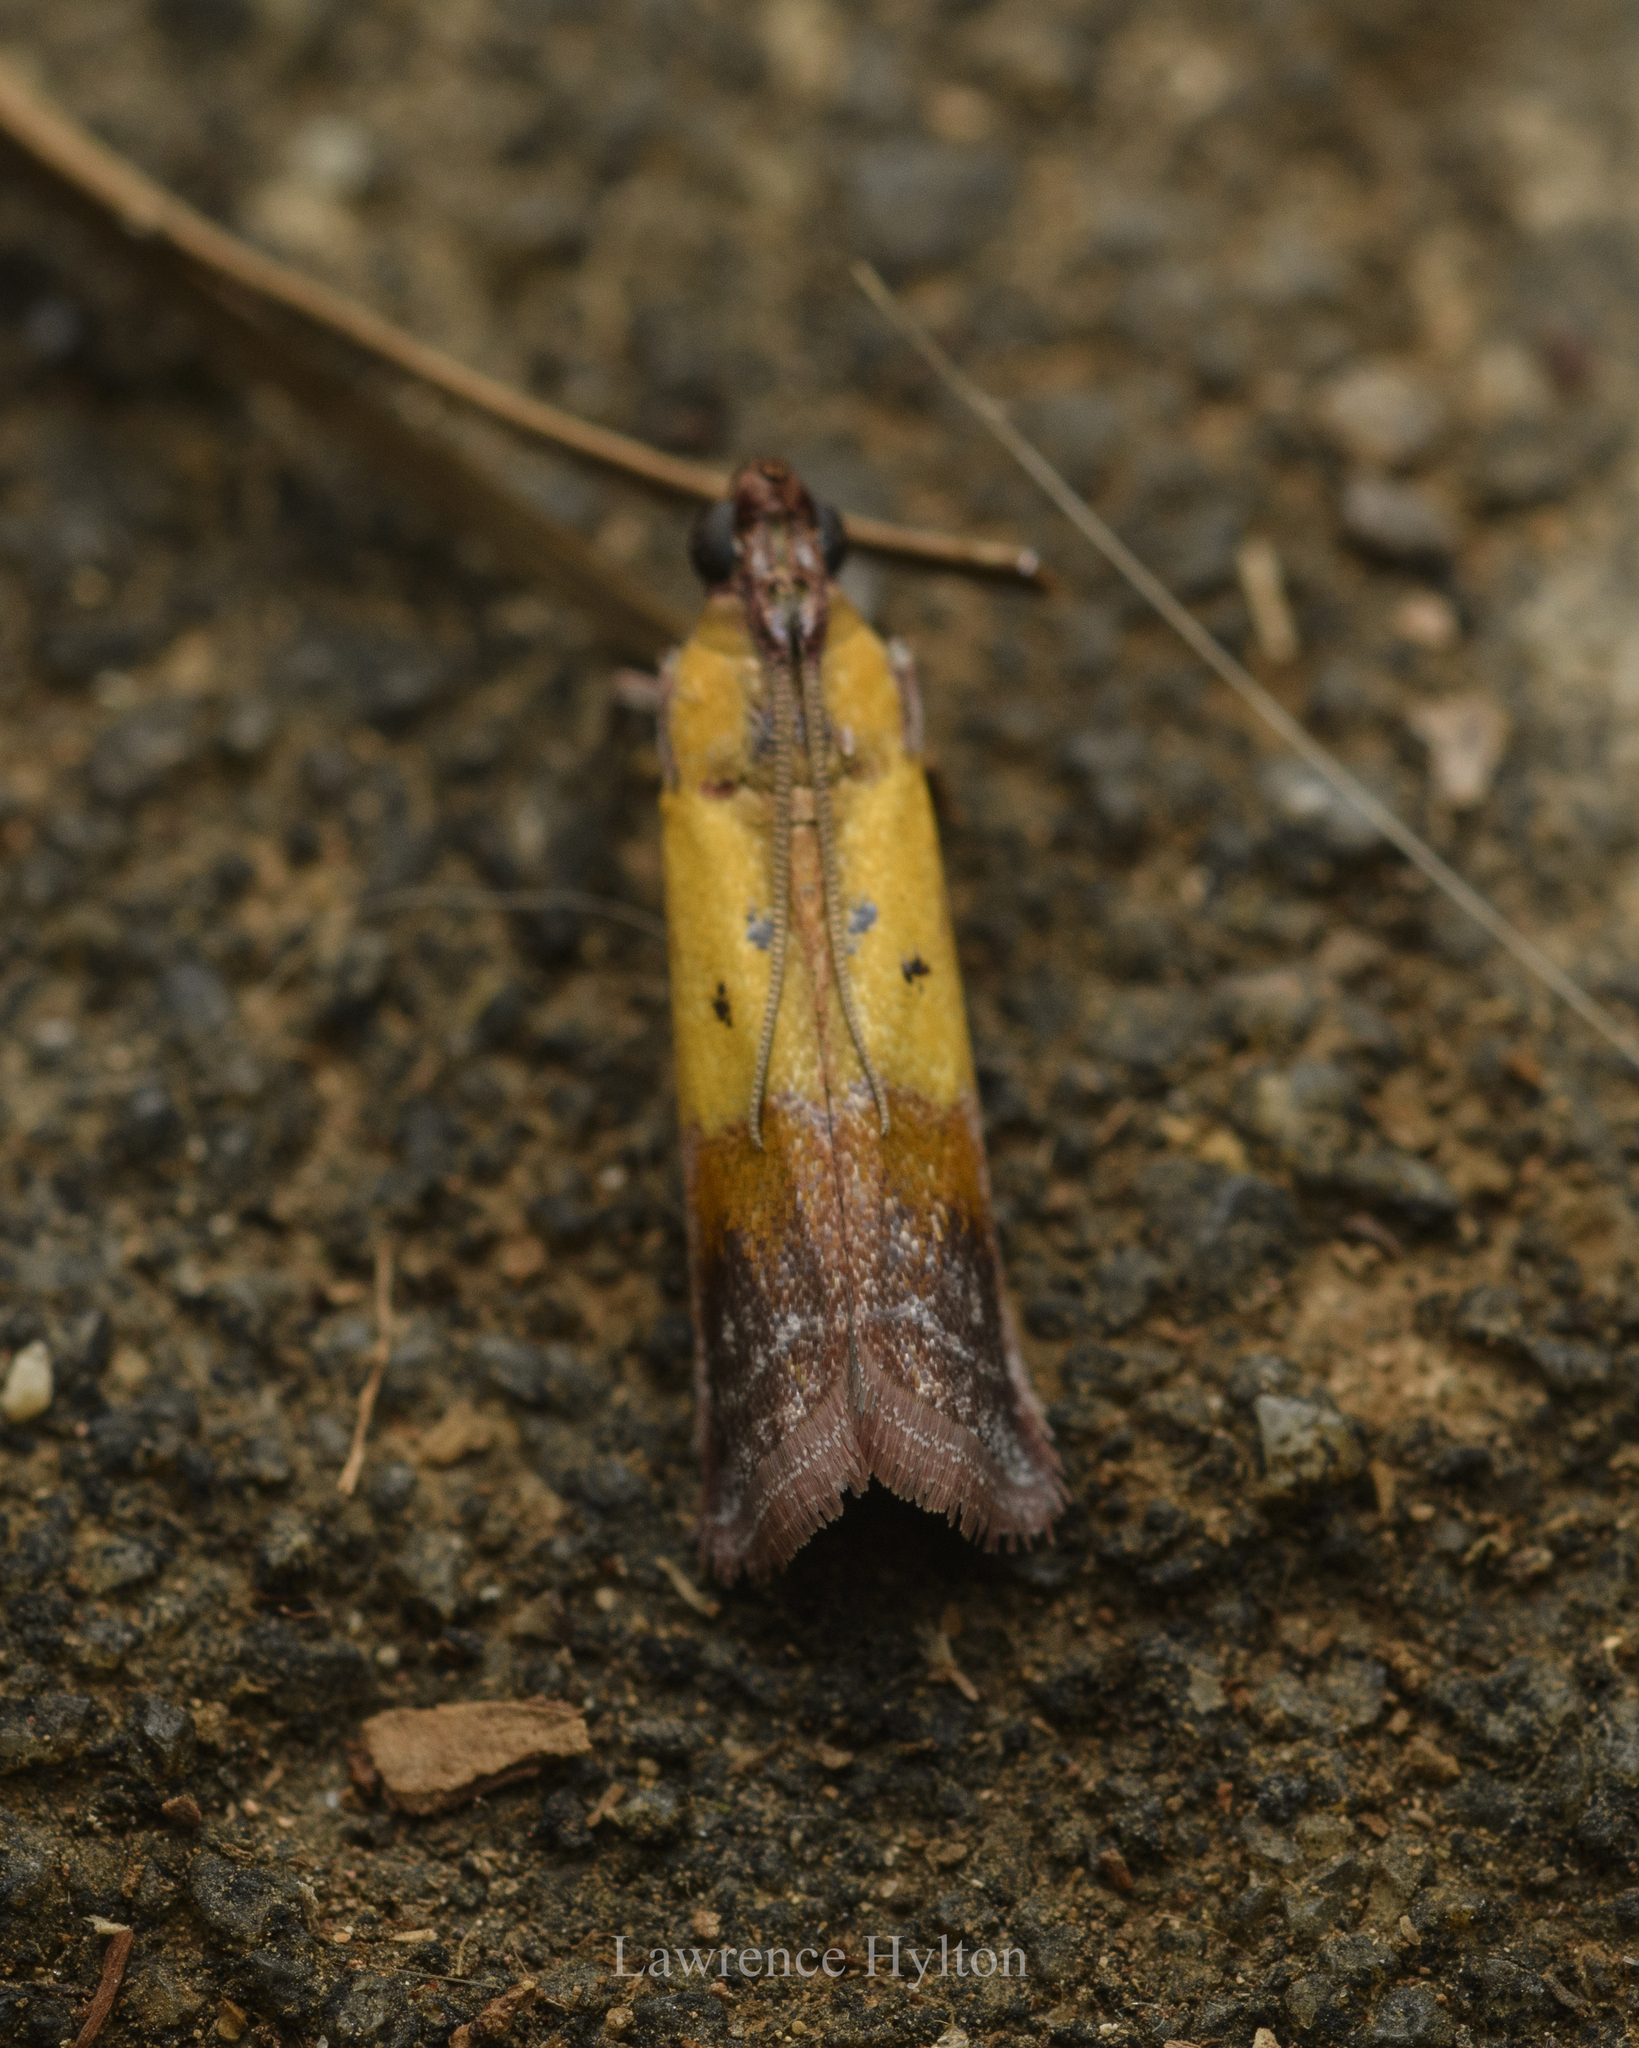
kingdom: Animalia
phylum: Arthropoda
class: Insecta
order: Lepidoptera
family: Pyralidae
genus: Piesmopoda
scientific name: Piesmopoda
